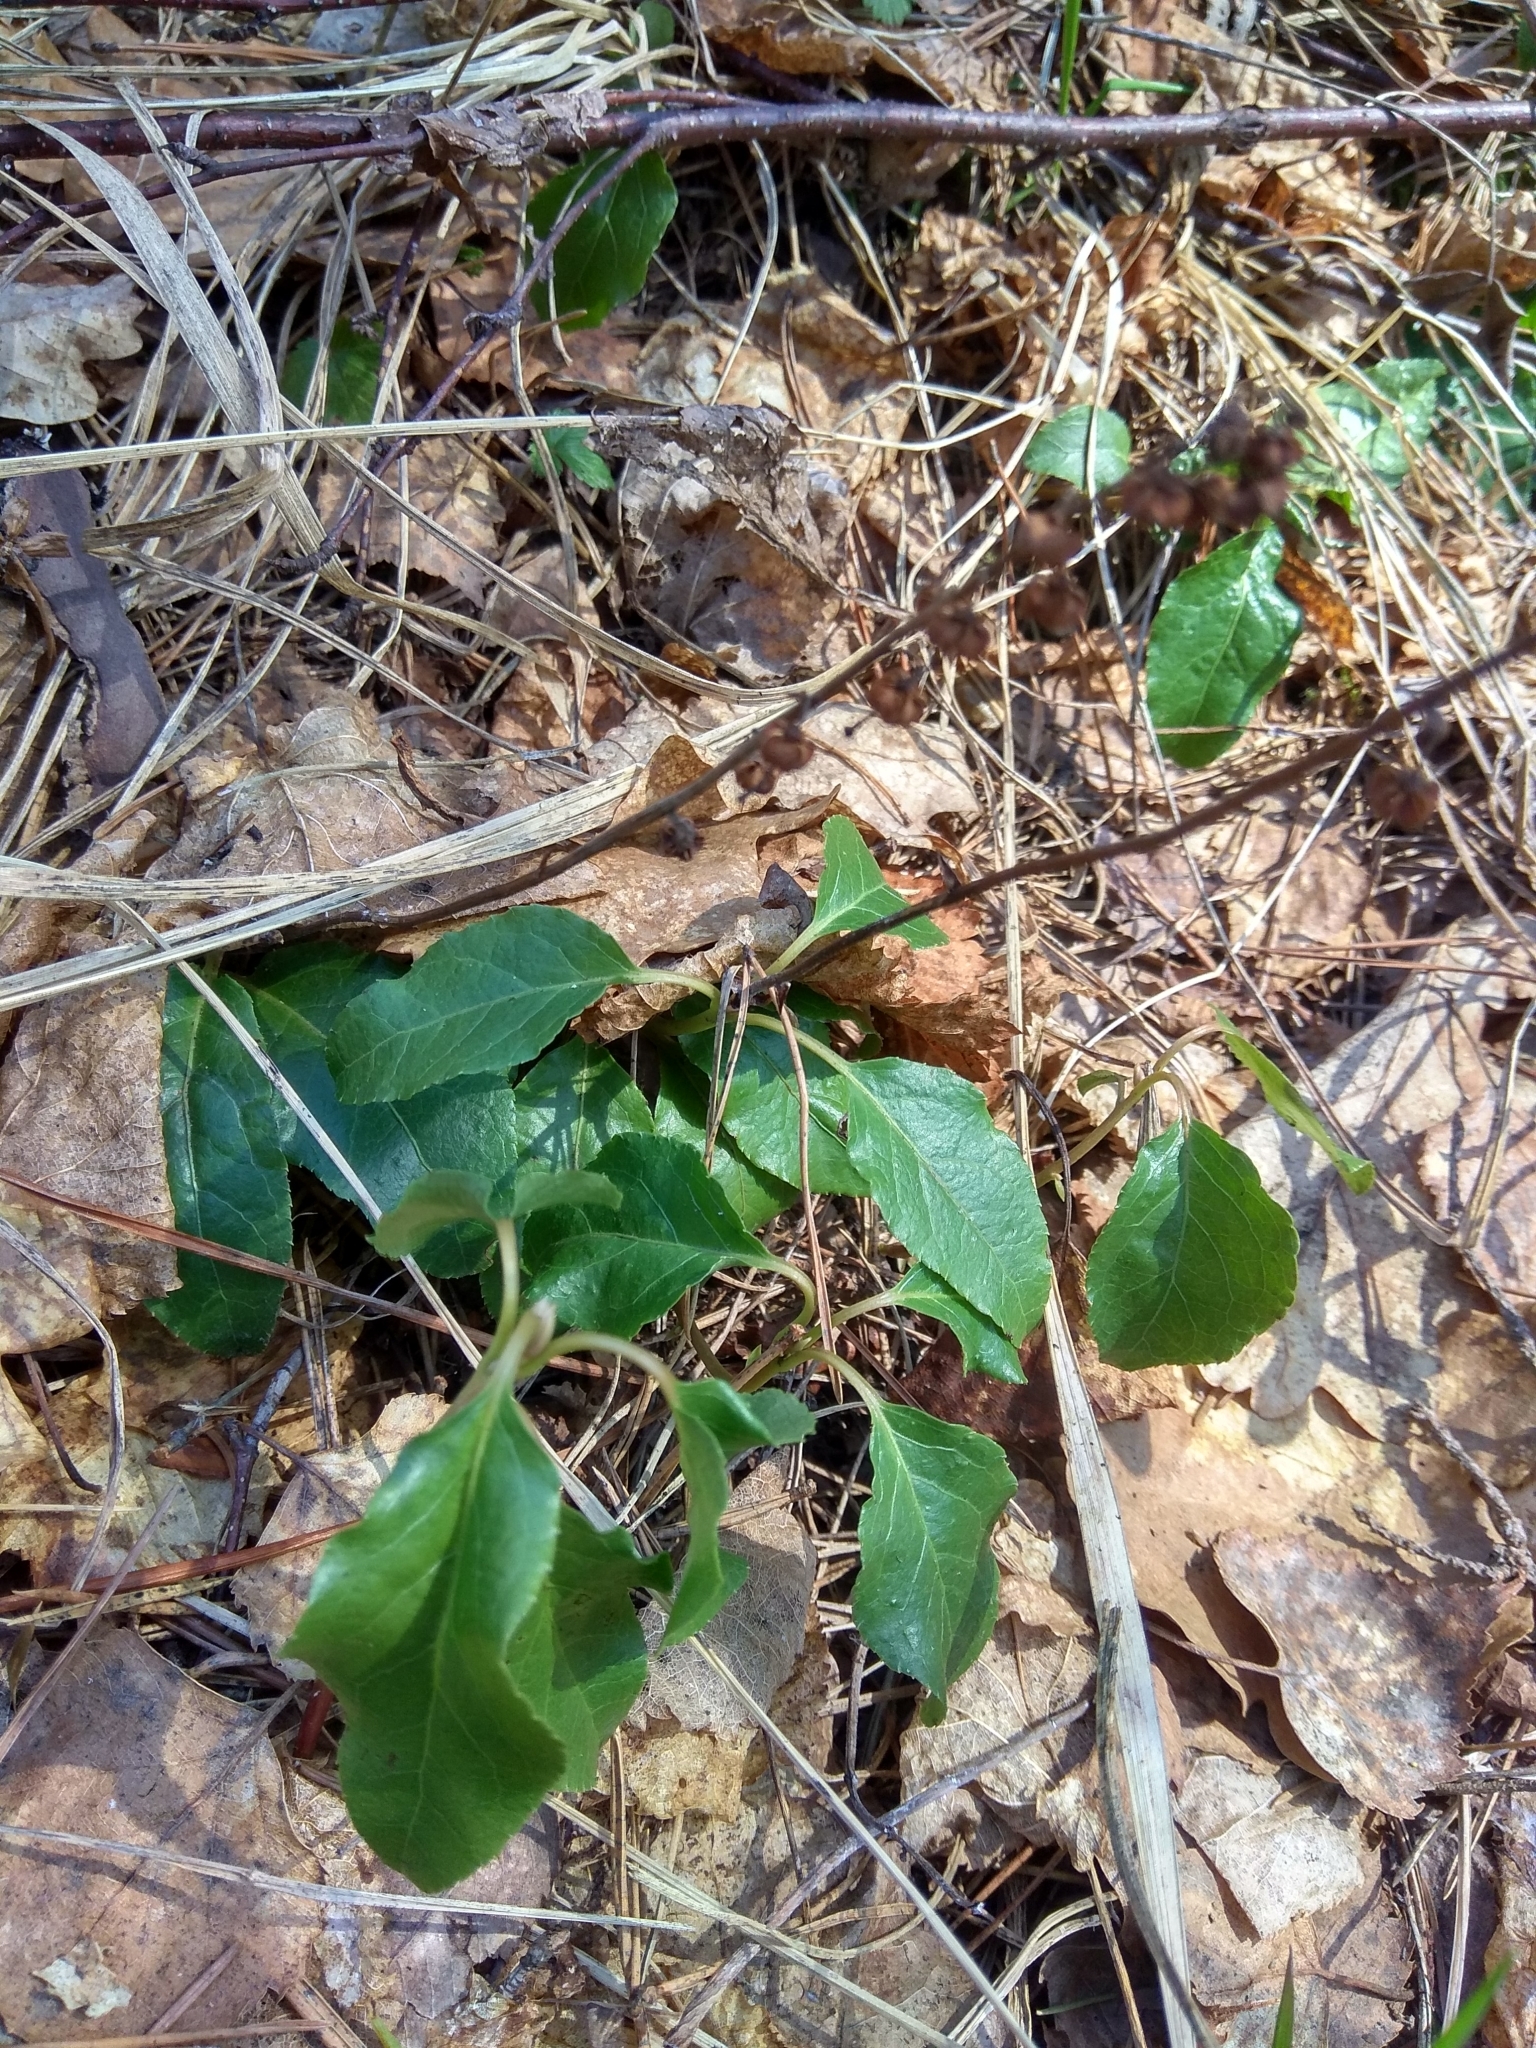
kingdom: Plantae
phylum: Tracheophyta
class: Magnoliopsida
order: Ericales
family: Ericaceae
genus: Orthilia
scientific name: Orthilia secunda
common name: One-sided orthilia
